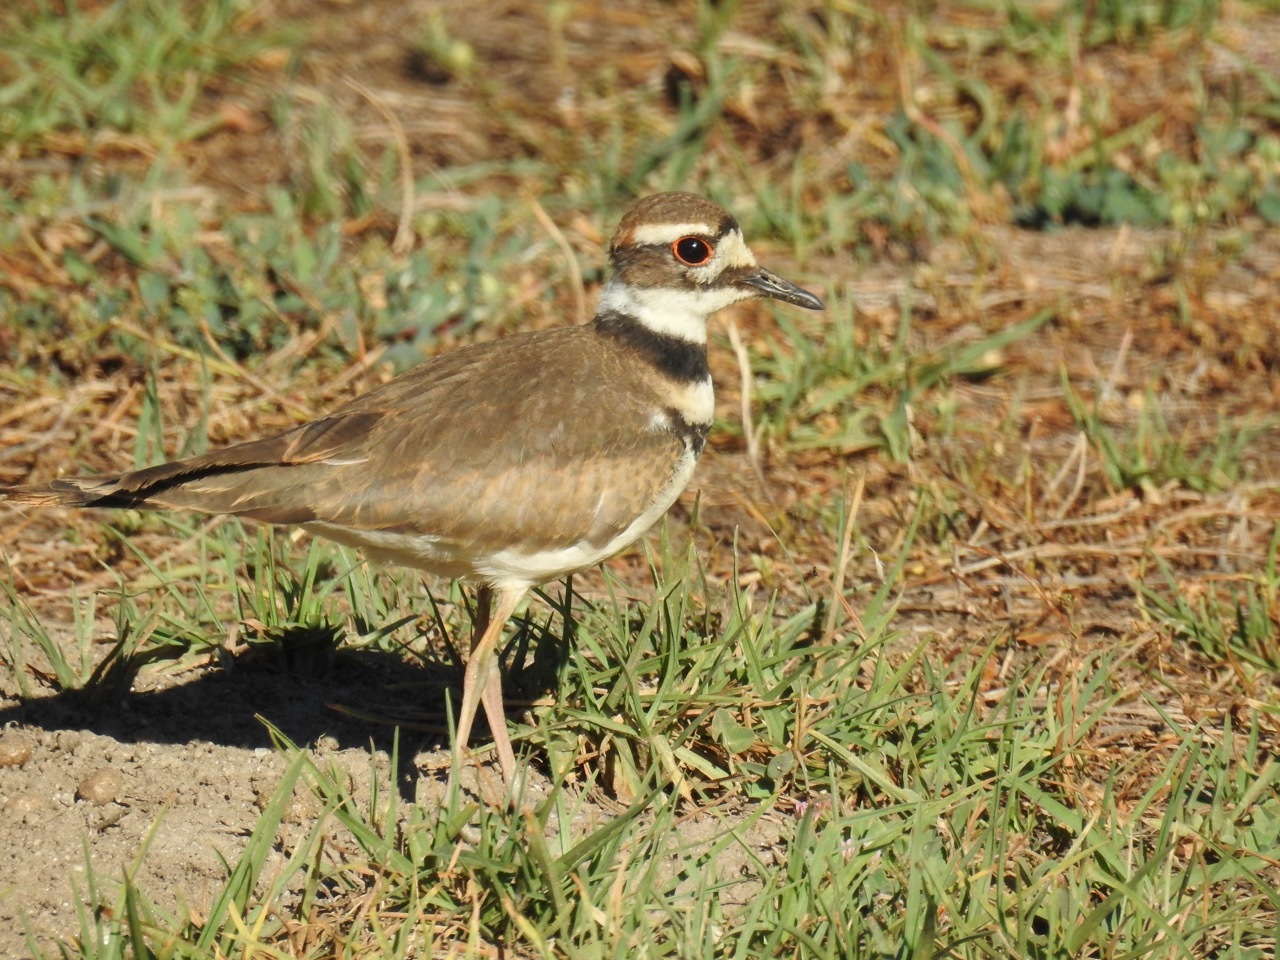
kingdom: Animalia
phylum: Chordata
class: Aves
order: Charadriiformes
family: Charadriidae
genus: Charadrius
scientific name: Charadrius vociferus
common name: Killdeer
